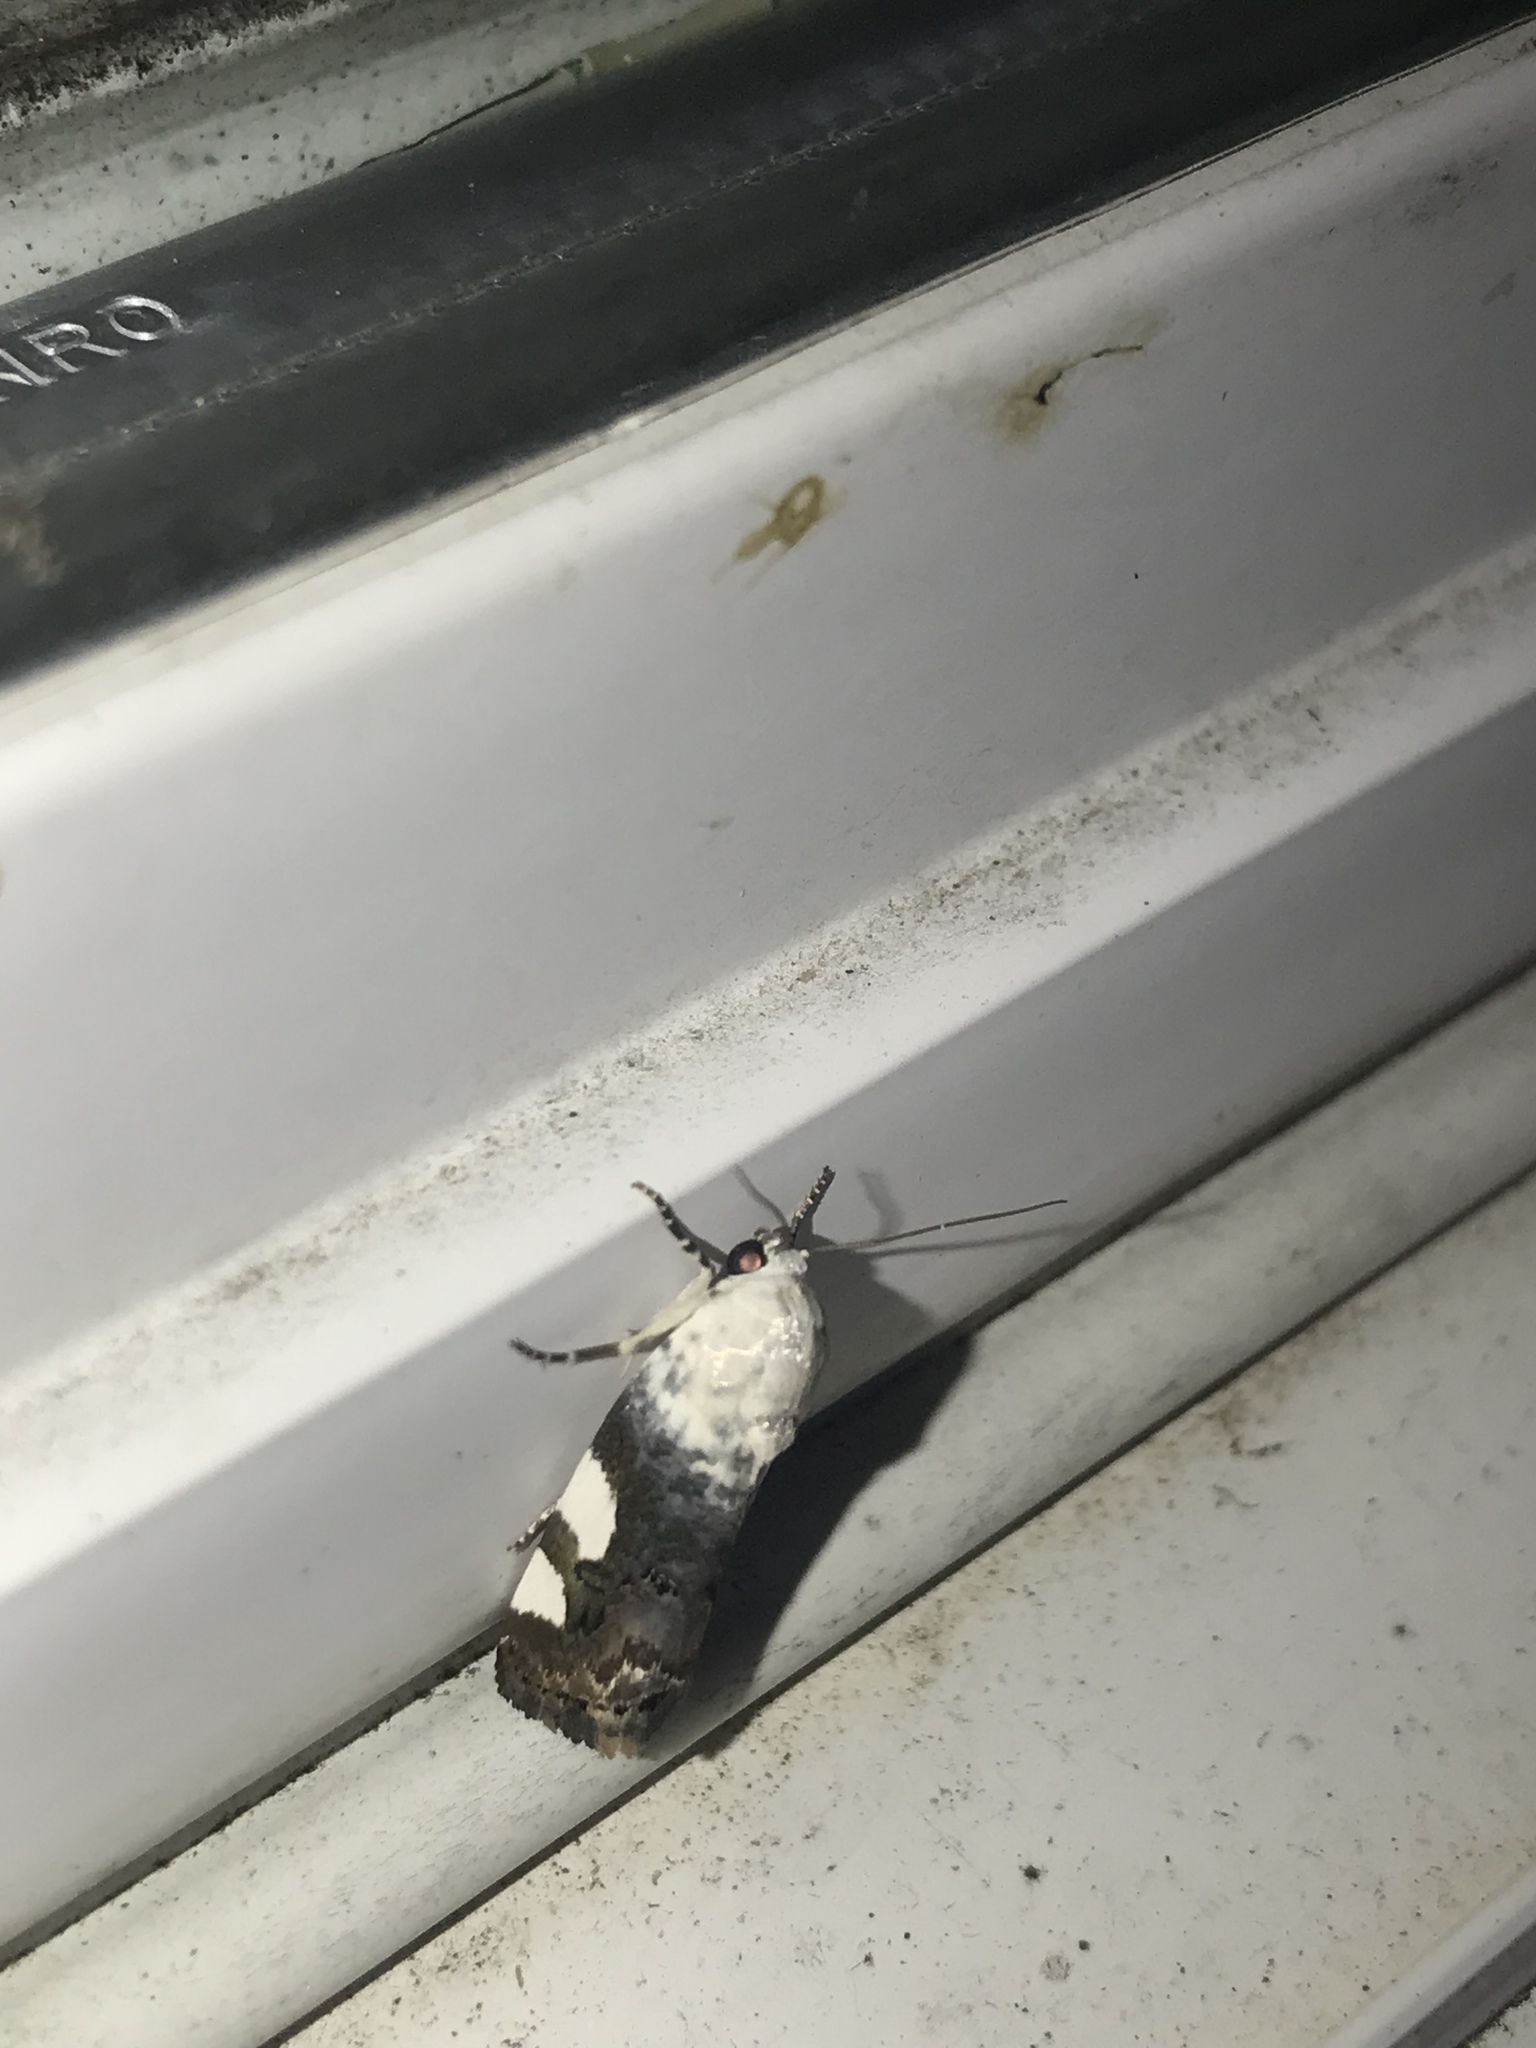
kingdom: Animalia
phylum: Arthropoda
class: Insecta
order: Lepidoptera
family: Noctuidae
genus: Acontia
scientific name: Acontia quadriplaga
